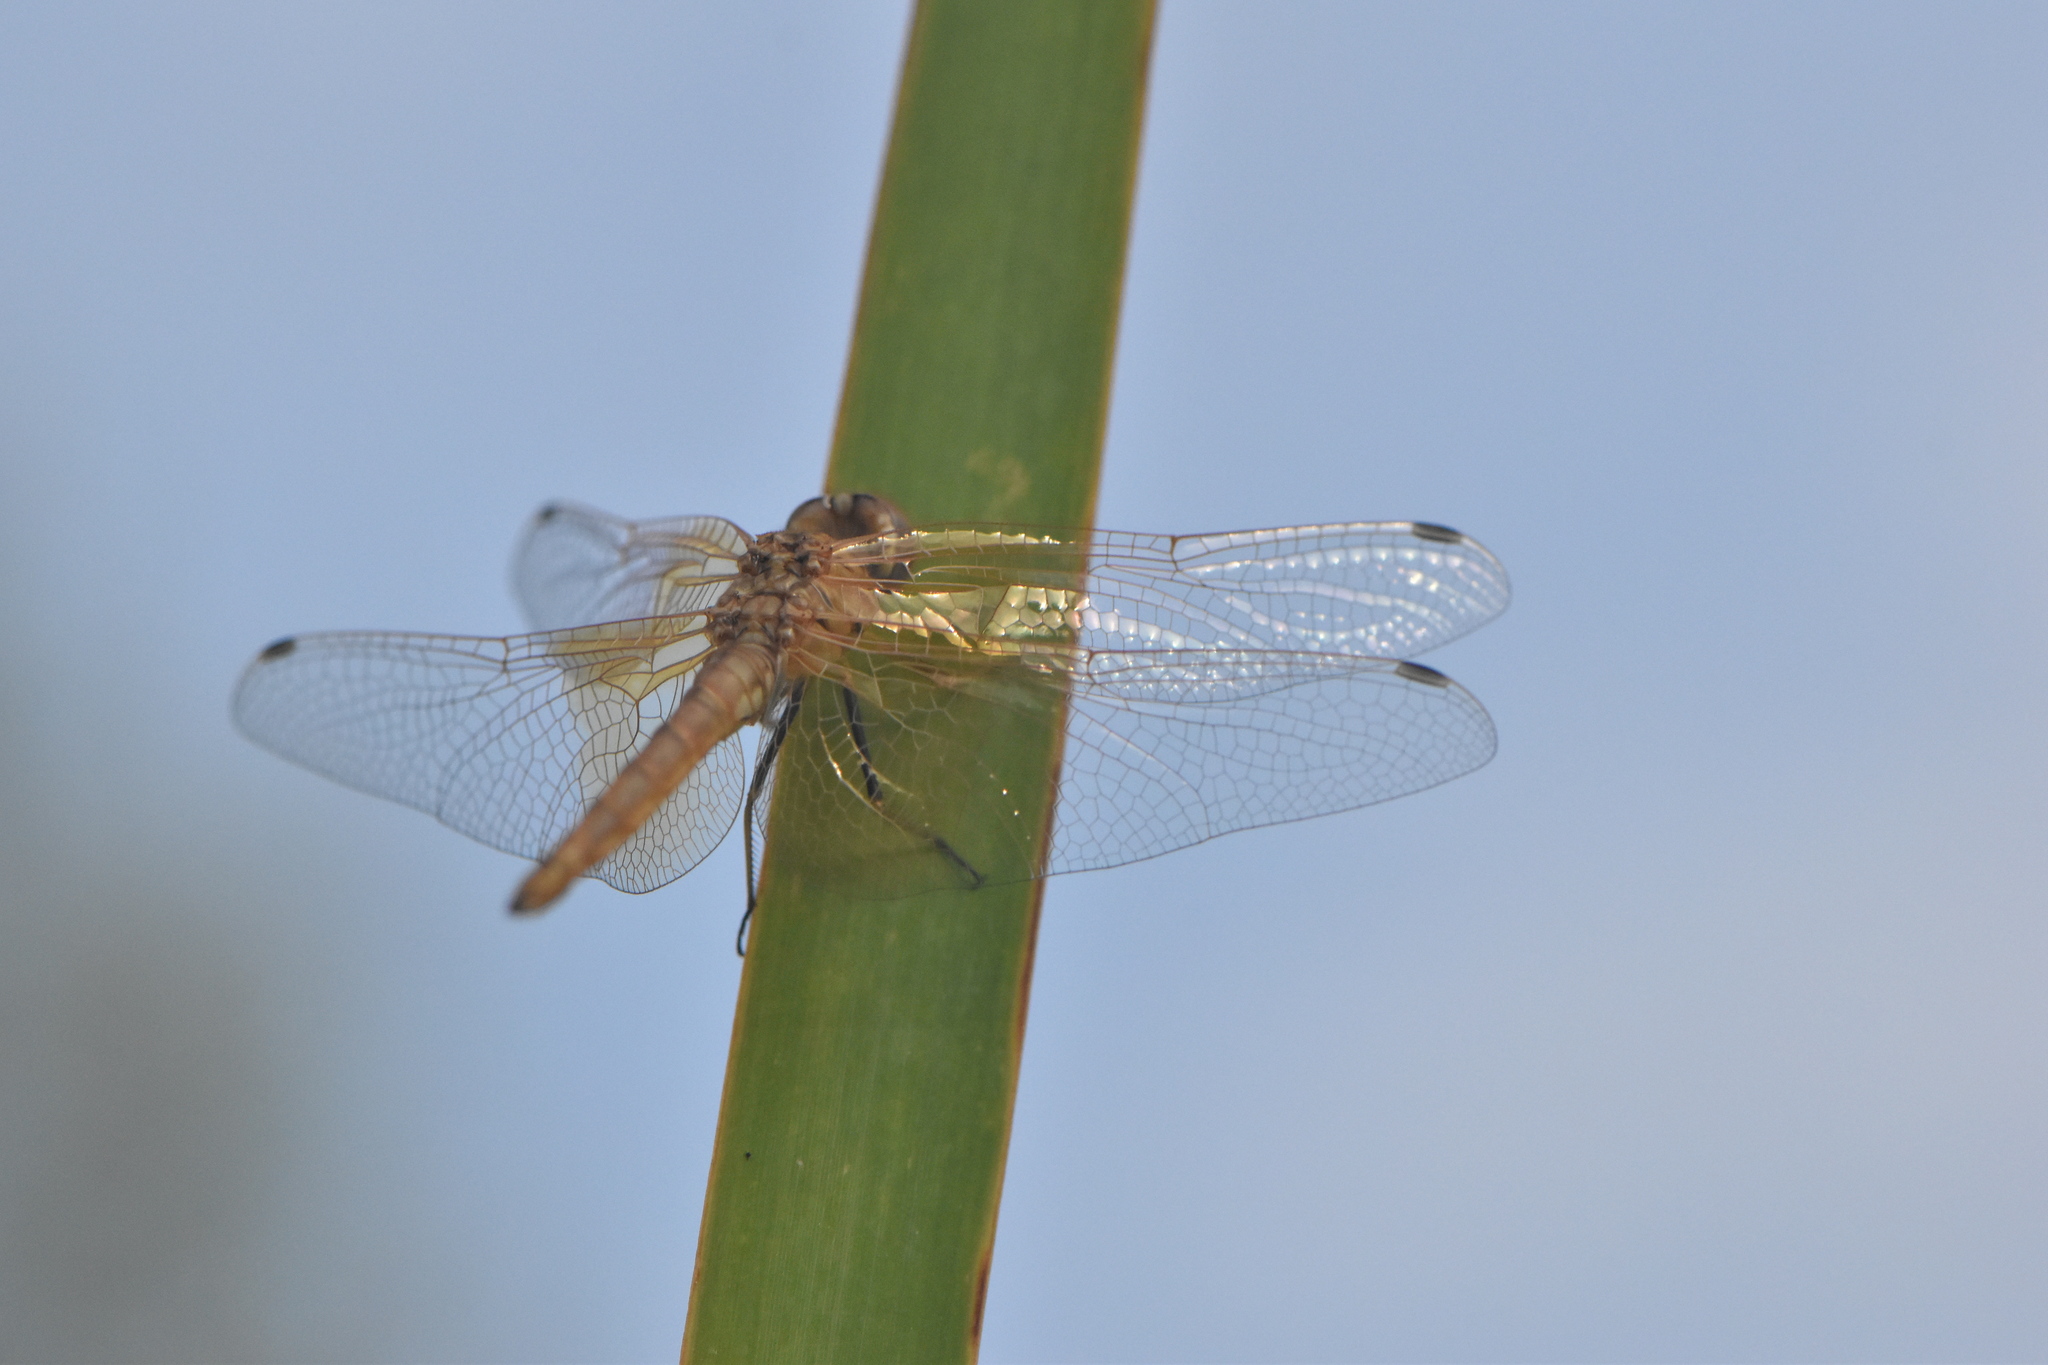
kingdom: Animalia
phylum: Arthropoda
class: Insecta
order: Odonata
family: Libellulidae
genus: Trithemis
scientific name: Trithemis kirbyi
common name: Kirby's dropwing
